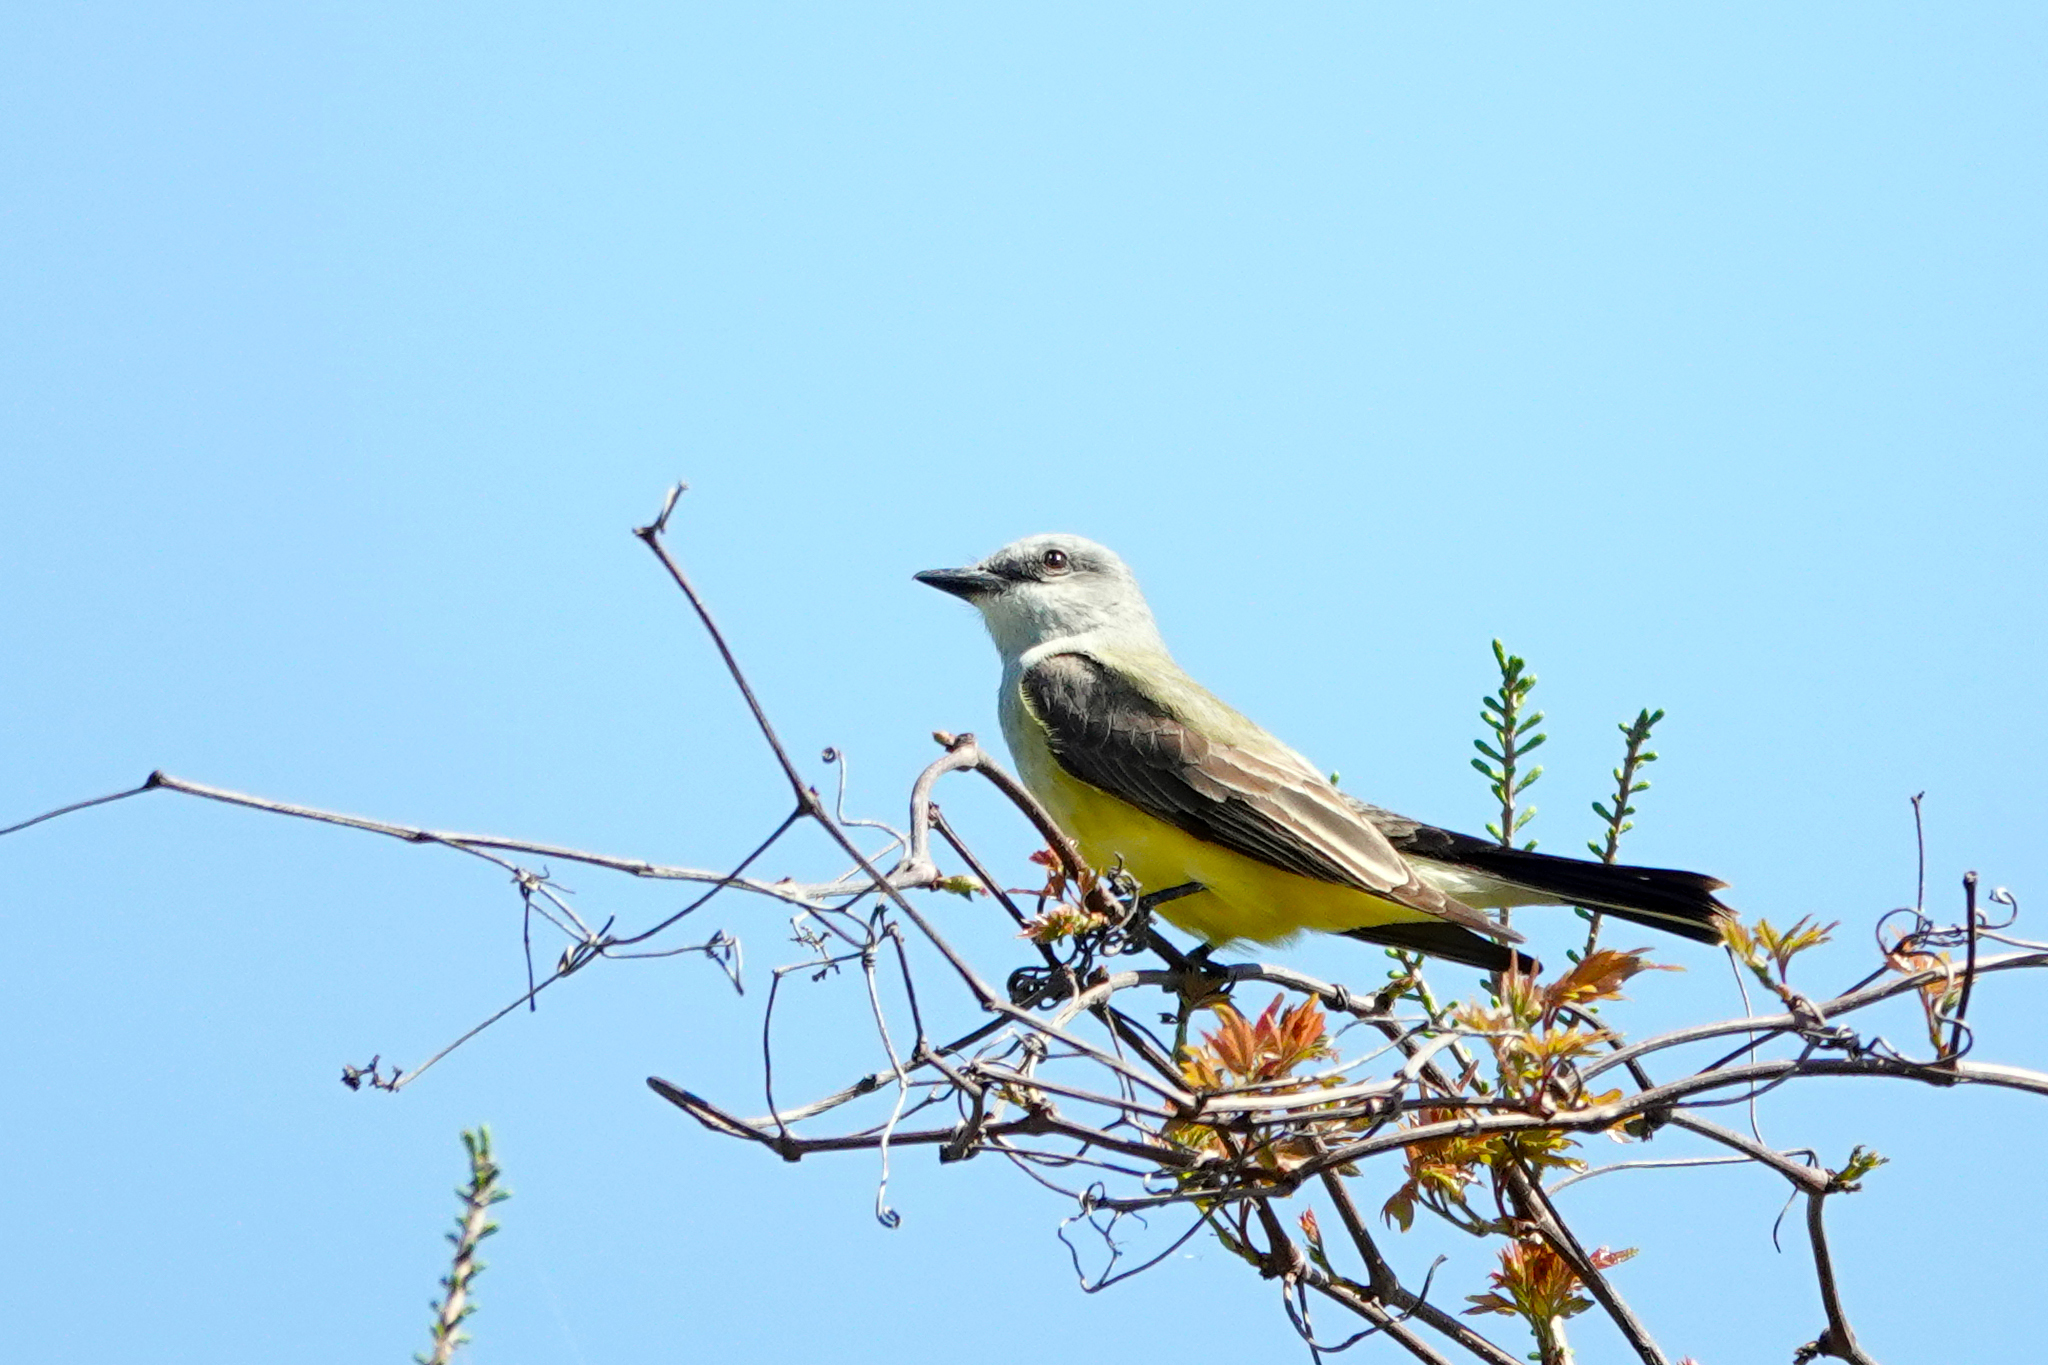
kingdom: Animalia
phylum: Chordata
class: Aves
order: Passeriformes
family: Tyrannidae
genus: Tyrannus
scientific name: Tyrannus verticalis
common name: Western kingbird
